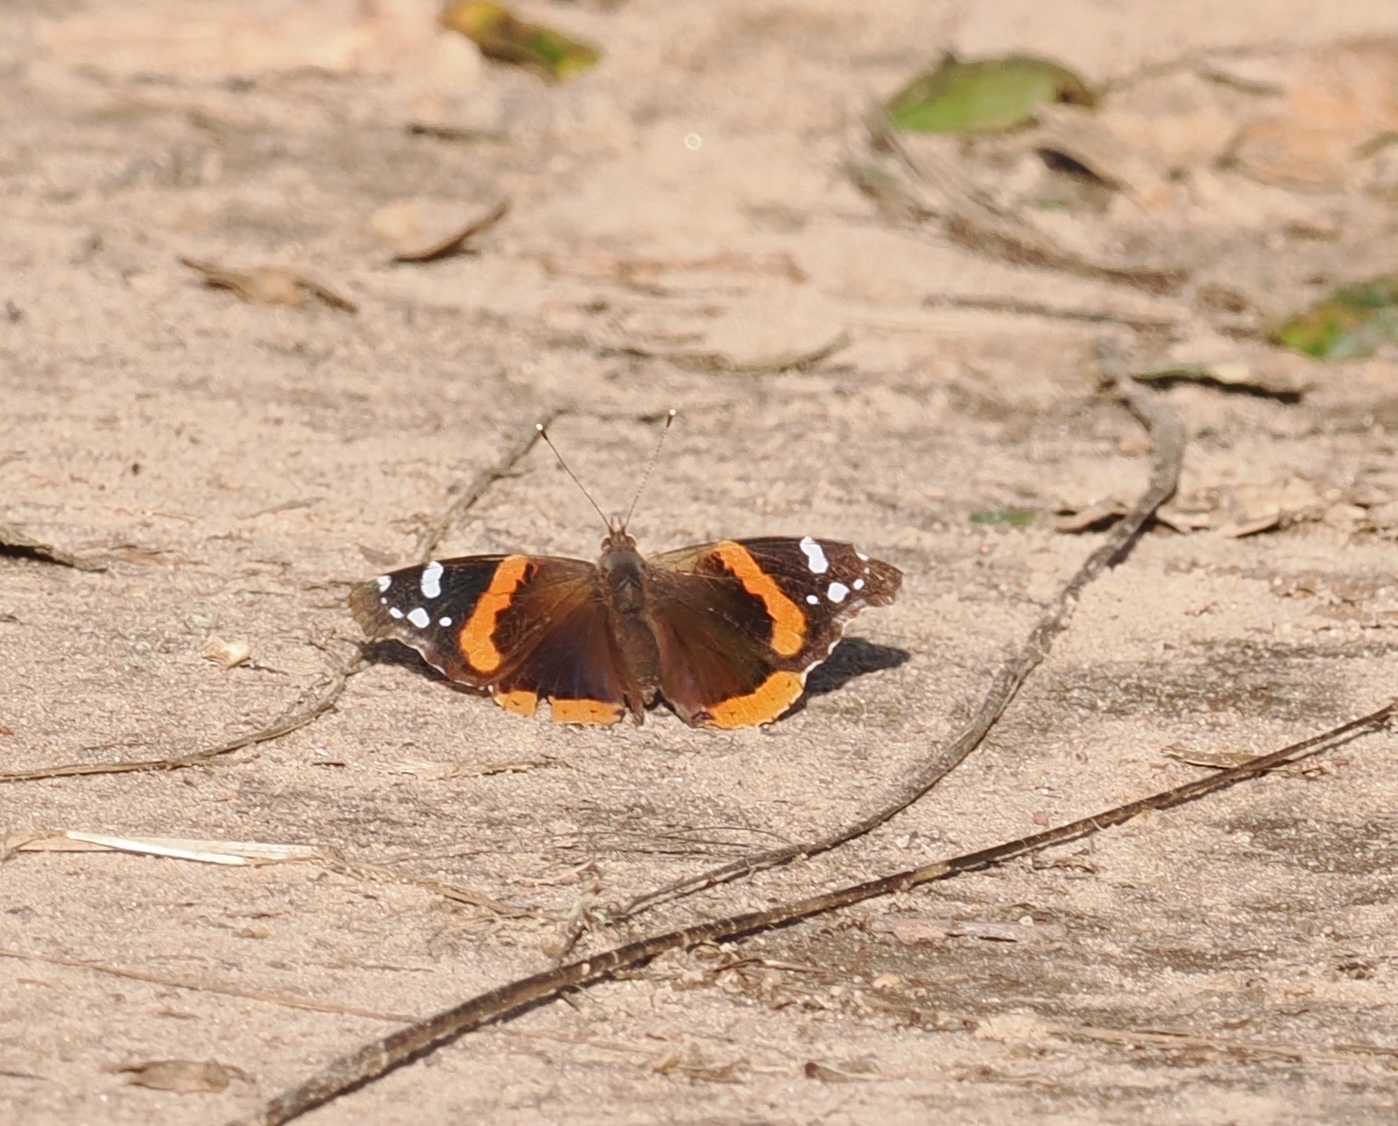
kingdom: Animalia
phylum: Arthropoda
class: Insecta
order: Lepidoptera
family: Nymphalidae
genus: Vanessa
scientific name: Vanessa atalanta
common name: Red admiral
